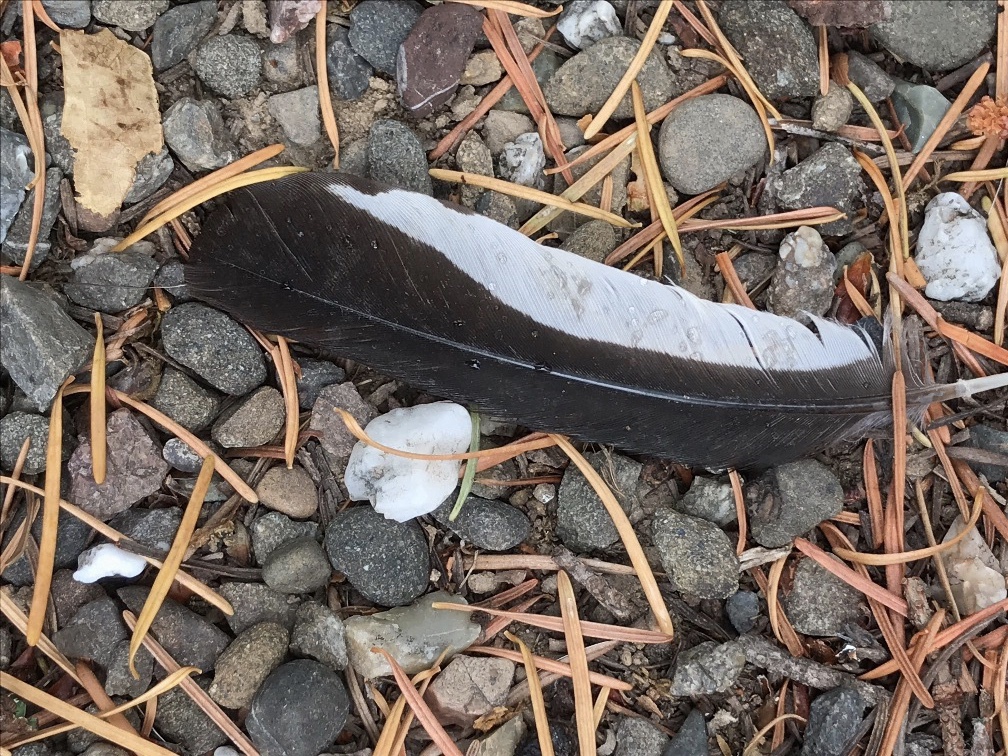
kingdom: Animalia
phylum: Chordata
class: Aves
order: Piciformes
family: Picidae
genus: Melanerpes
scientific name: Melanerpes formicivorus
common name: Acorn woodpecker
